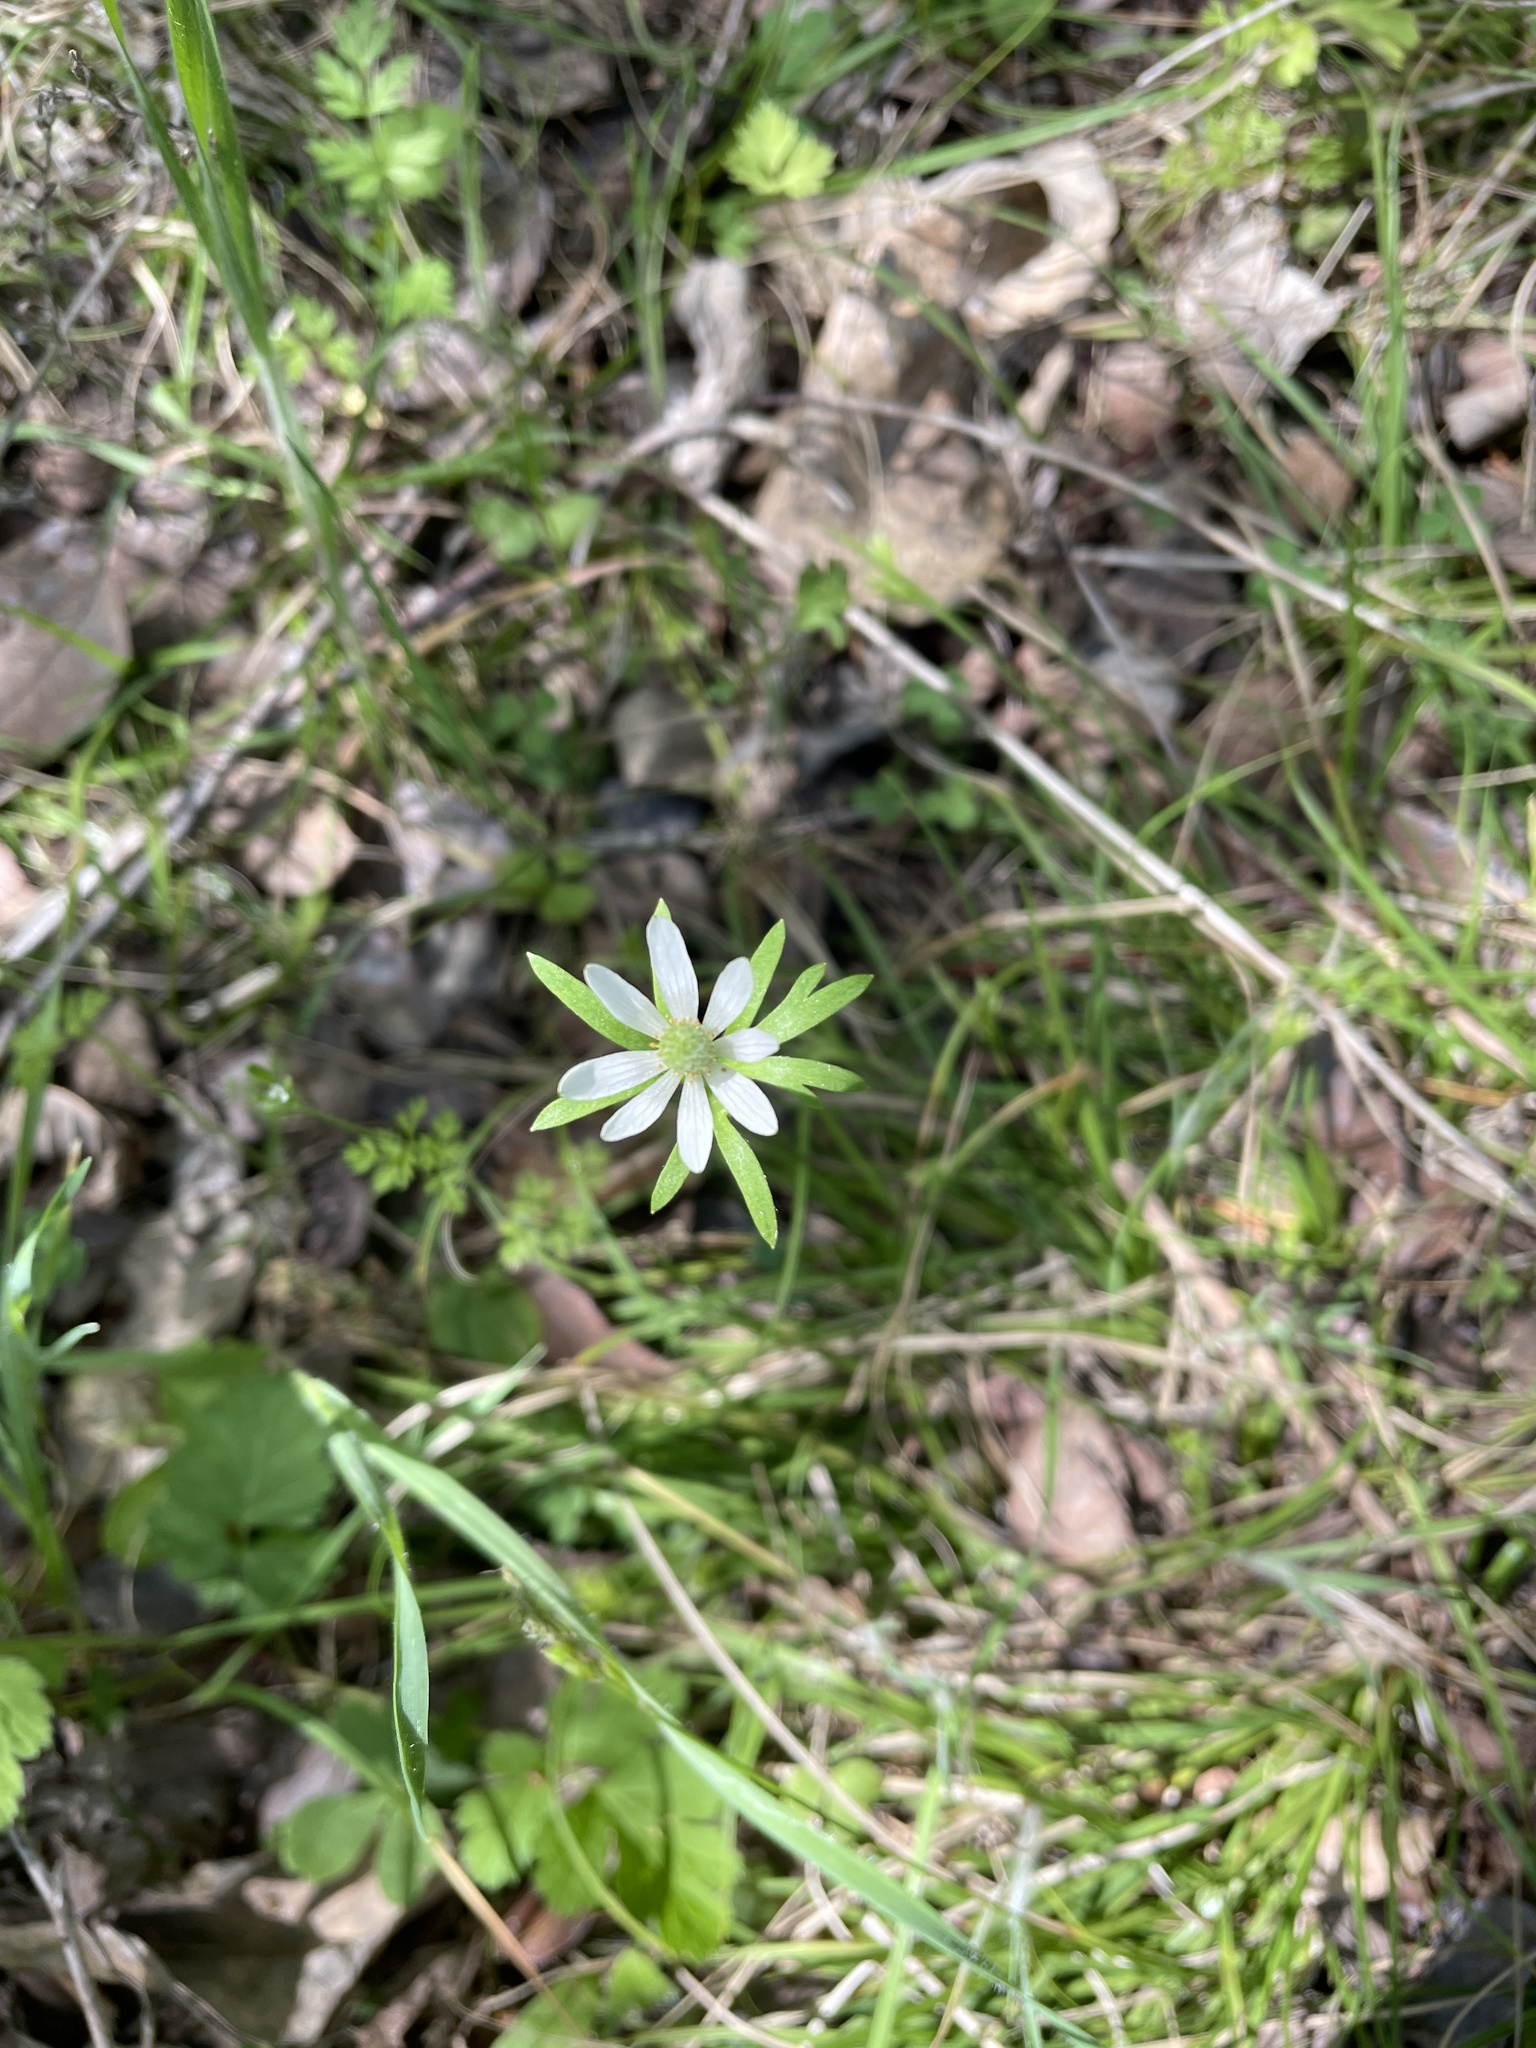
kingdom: Plantae
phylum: Tracheophyta
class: Magnoliopsida
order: Ranunculales
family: Ranunculaceae
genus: Anemone
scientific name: Anemone berlandieri
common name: Ten-petal anemone
